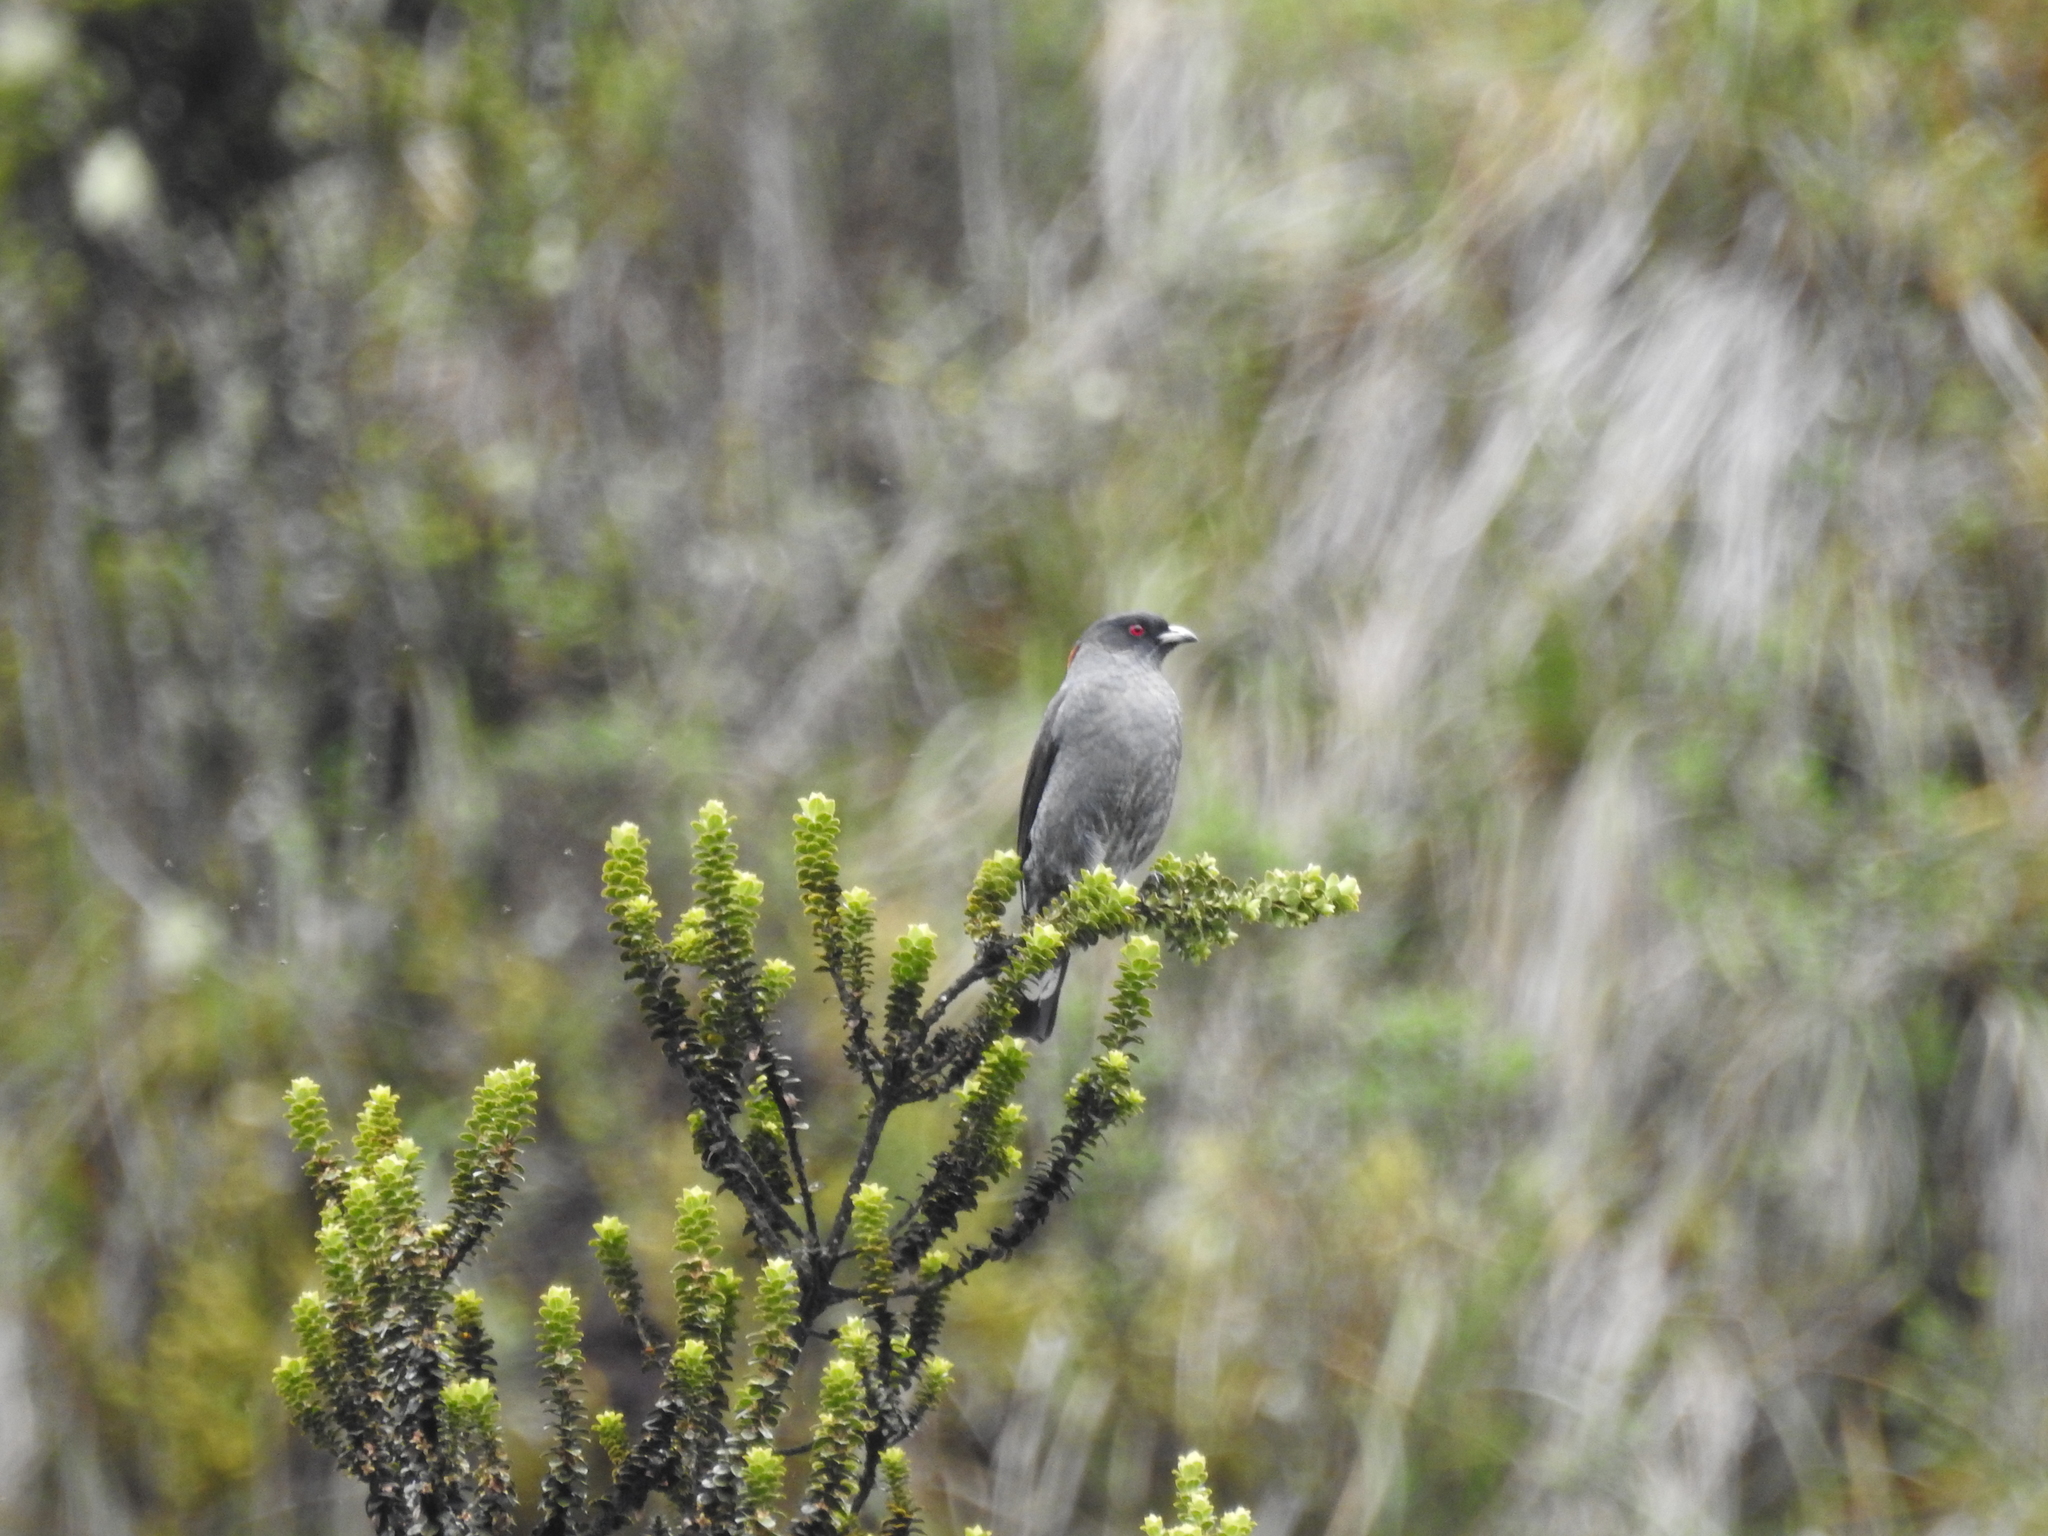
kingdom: Animalia
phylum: Chordata
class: Aves
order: Passeriformes
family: Cotingidae
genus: Ampelion
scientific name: Ampelion rubrocristatus
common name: Red-crested cotinga
